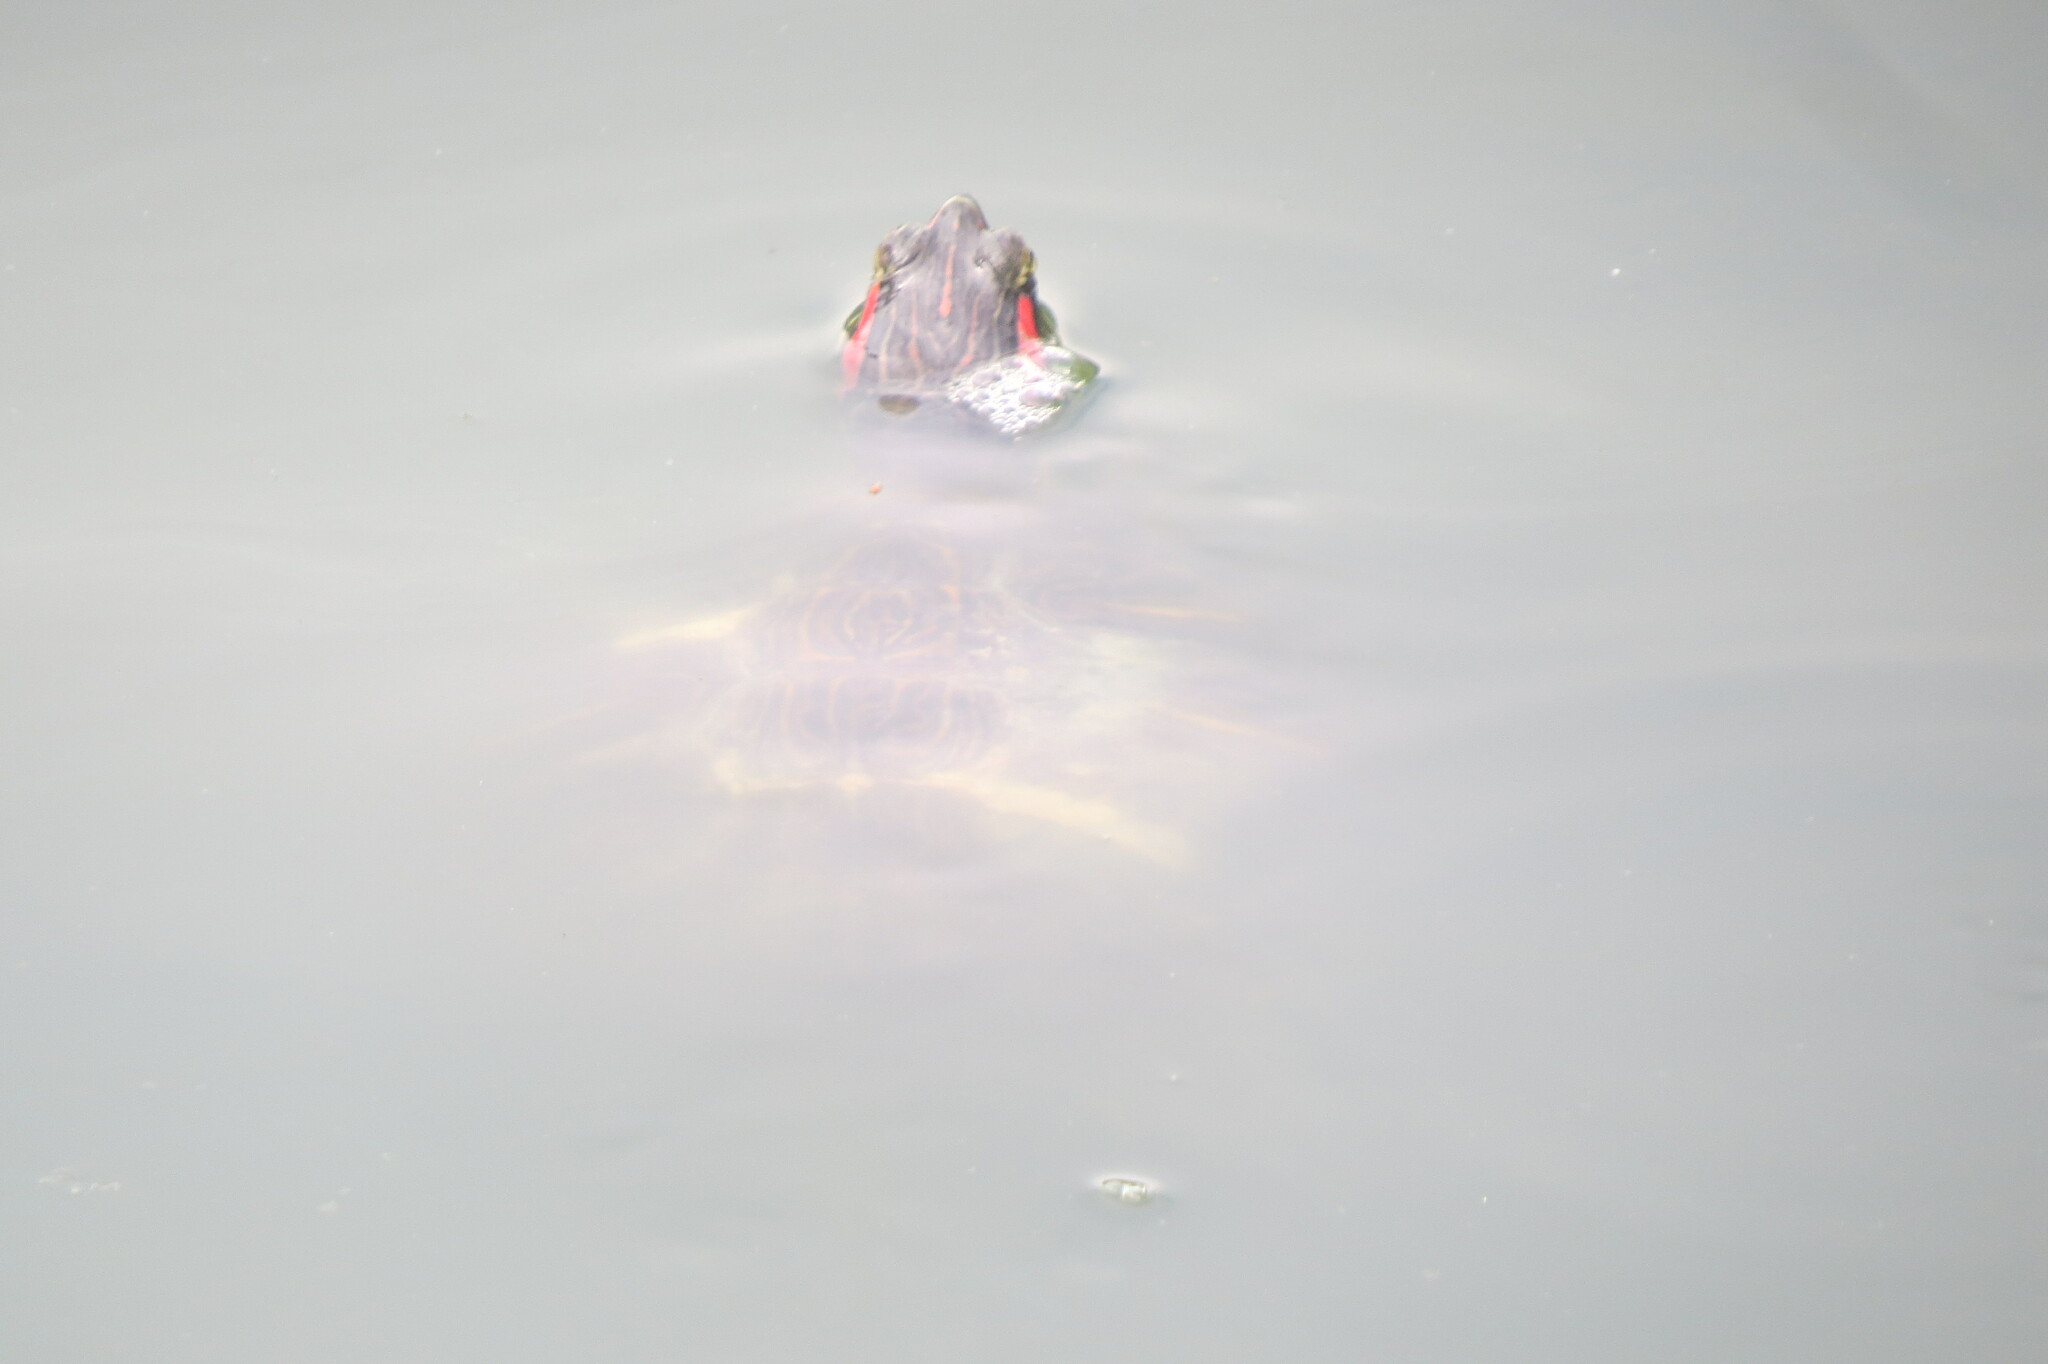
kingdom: Animalia
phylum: Chordata
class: Testudines
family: Emydidae
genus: Trachemys
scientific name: Trachemys scripta
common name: Slider
